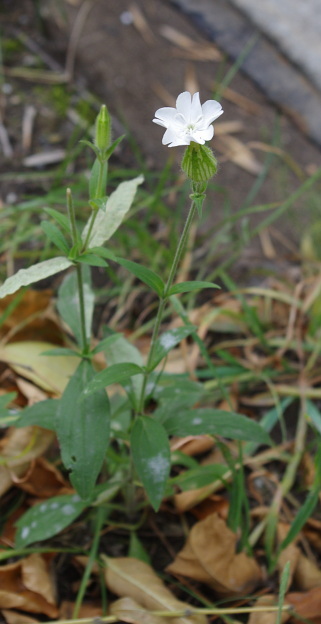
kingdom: Plantae
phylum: Tracheophyta
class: Magnoliopsida
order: Caryophyllales
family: Caryophyllaceae
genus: Silene
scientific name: Silene latifolia
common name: White campion
